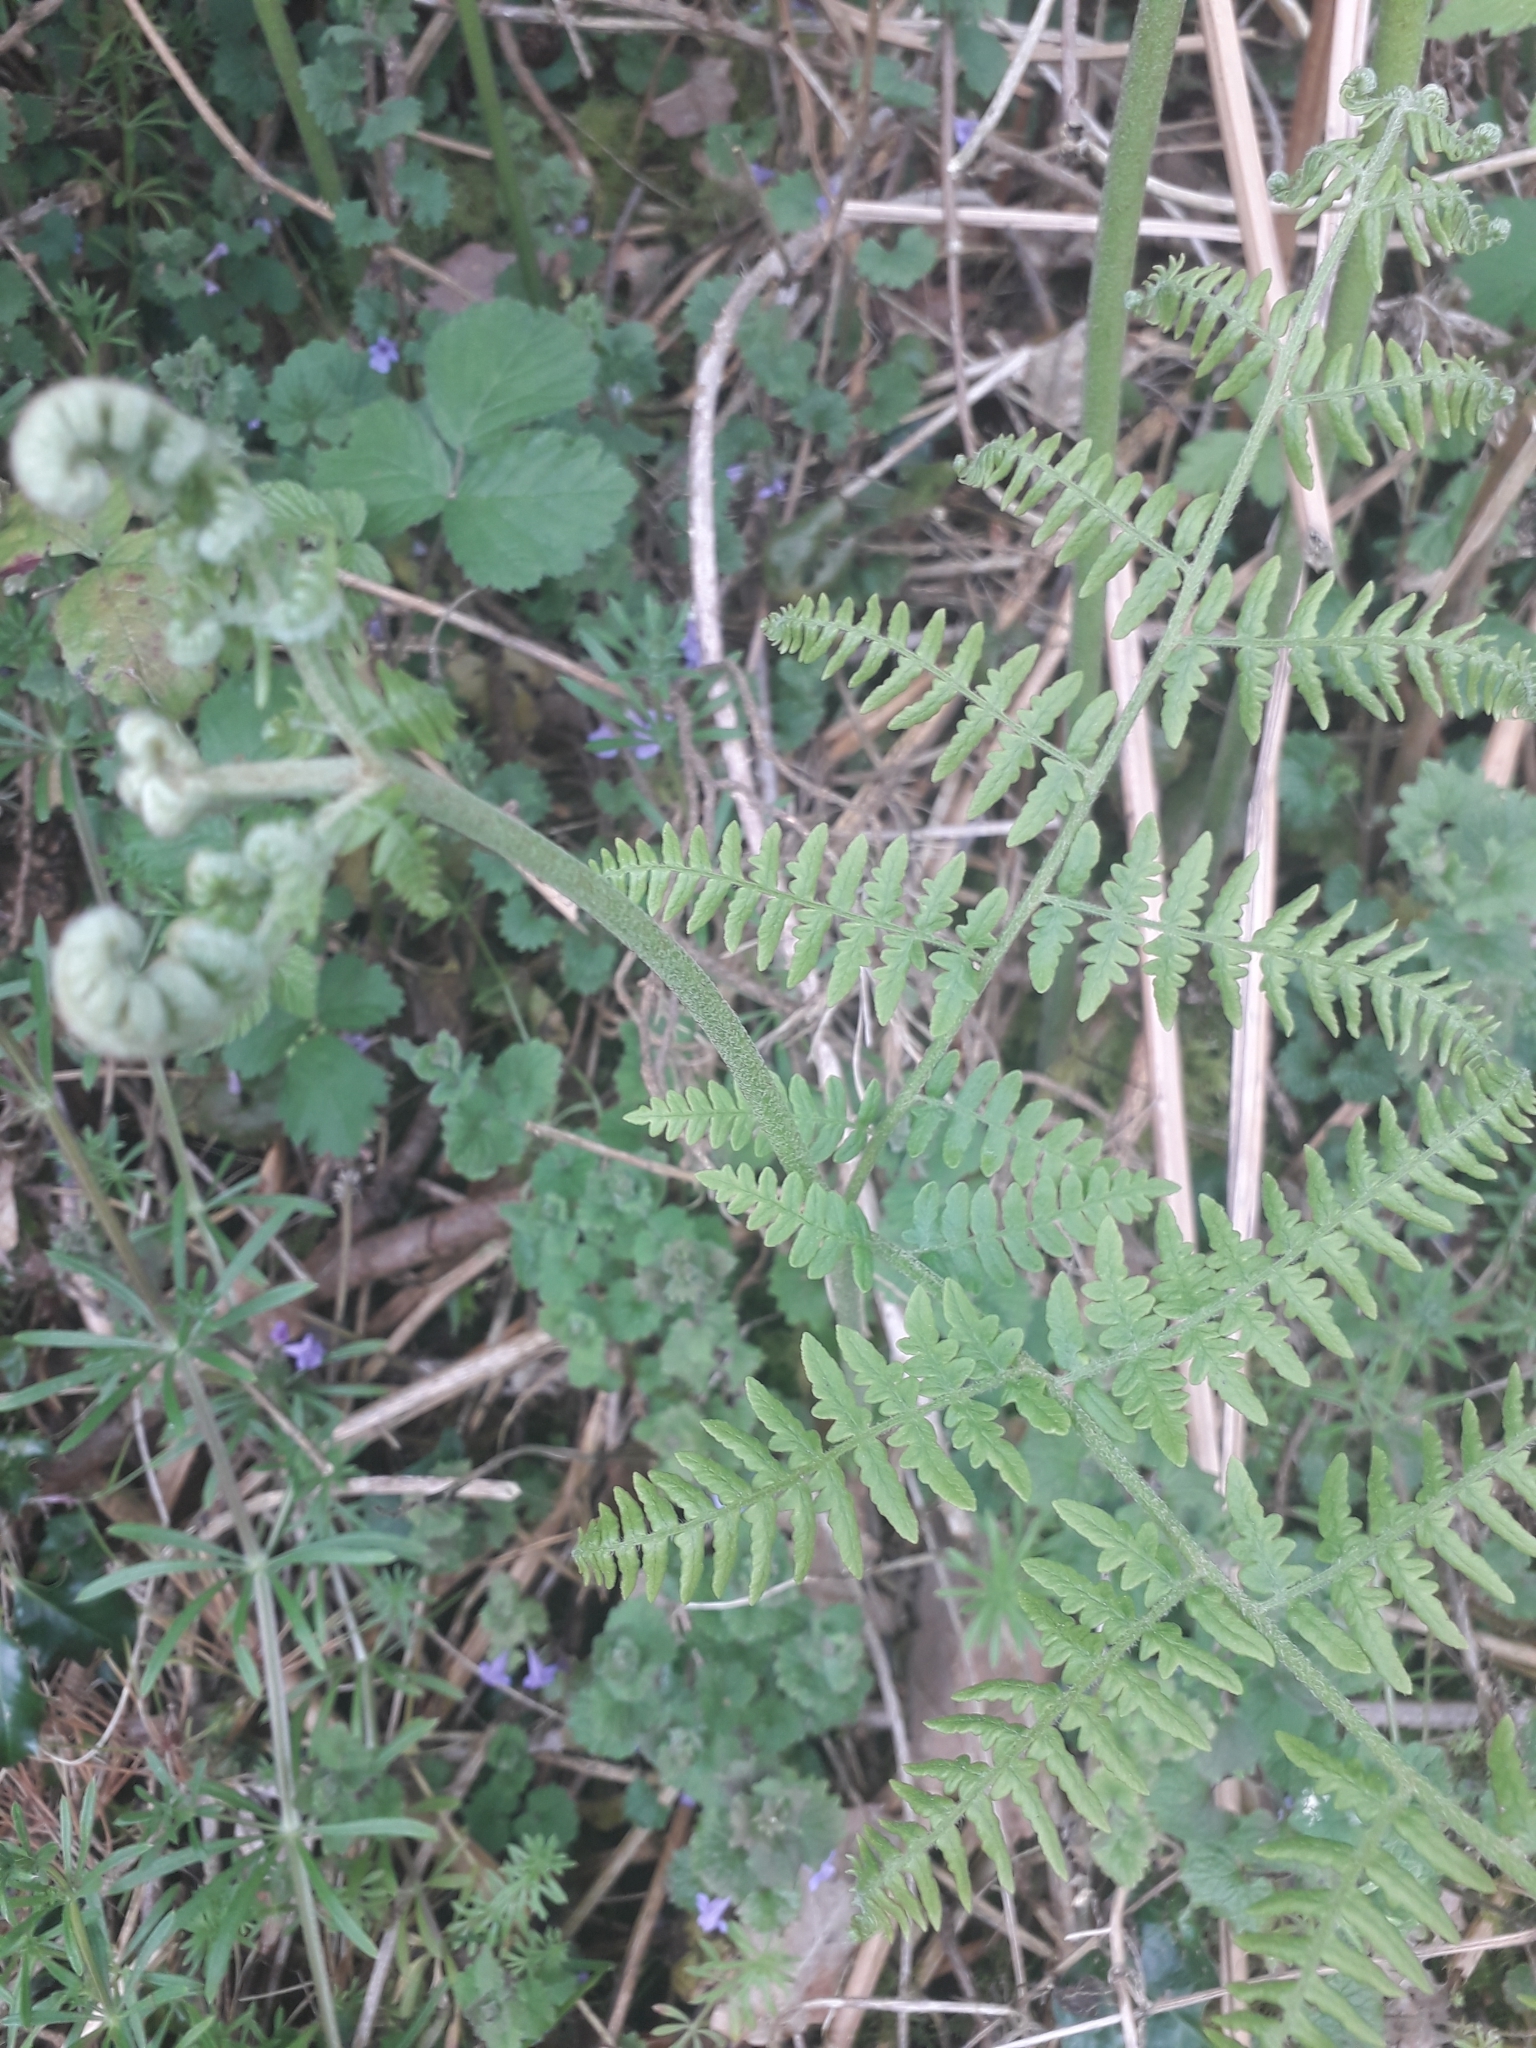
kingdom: Plantae
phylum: Tracheophyta
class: Polypodiopsida
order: Polypodiales
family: Dennstaedtiaceae
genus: Pteridium
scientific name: Pteridium aquilinum
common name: Bracken
